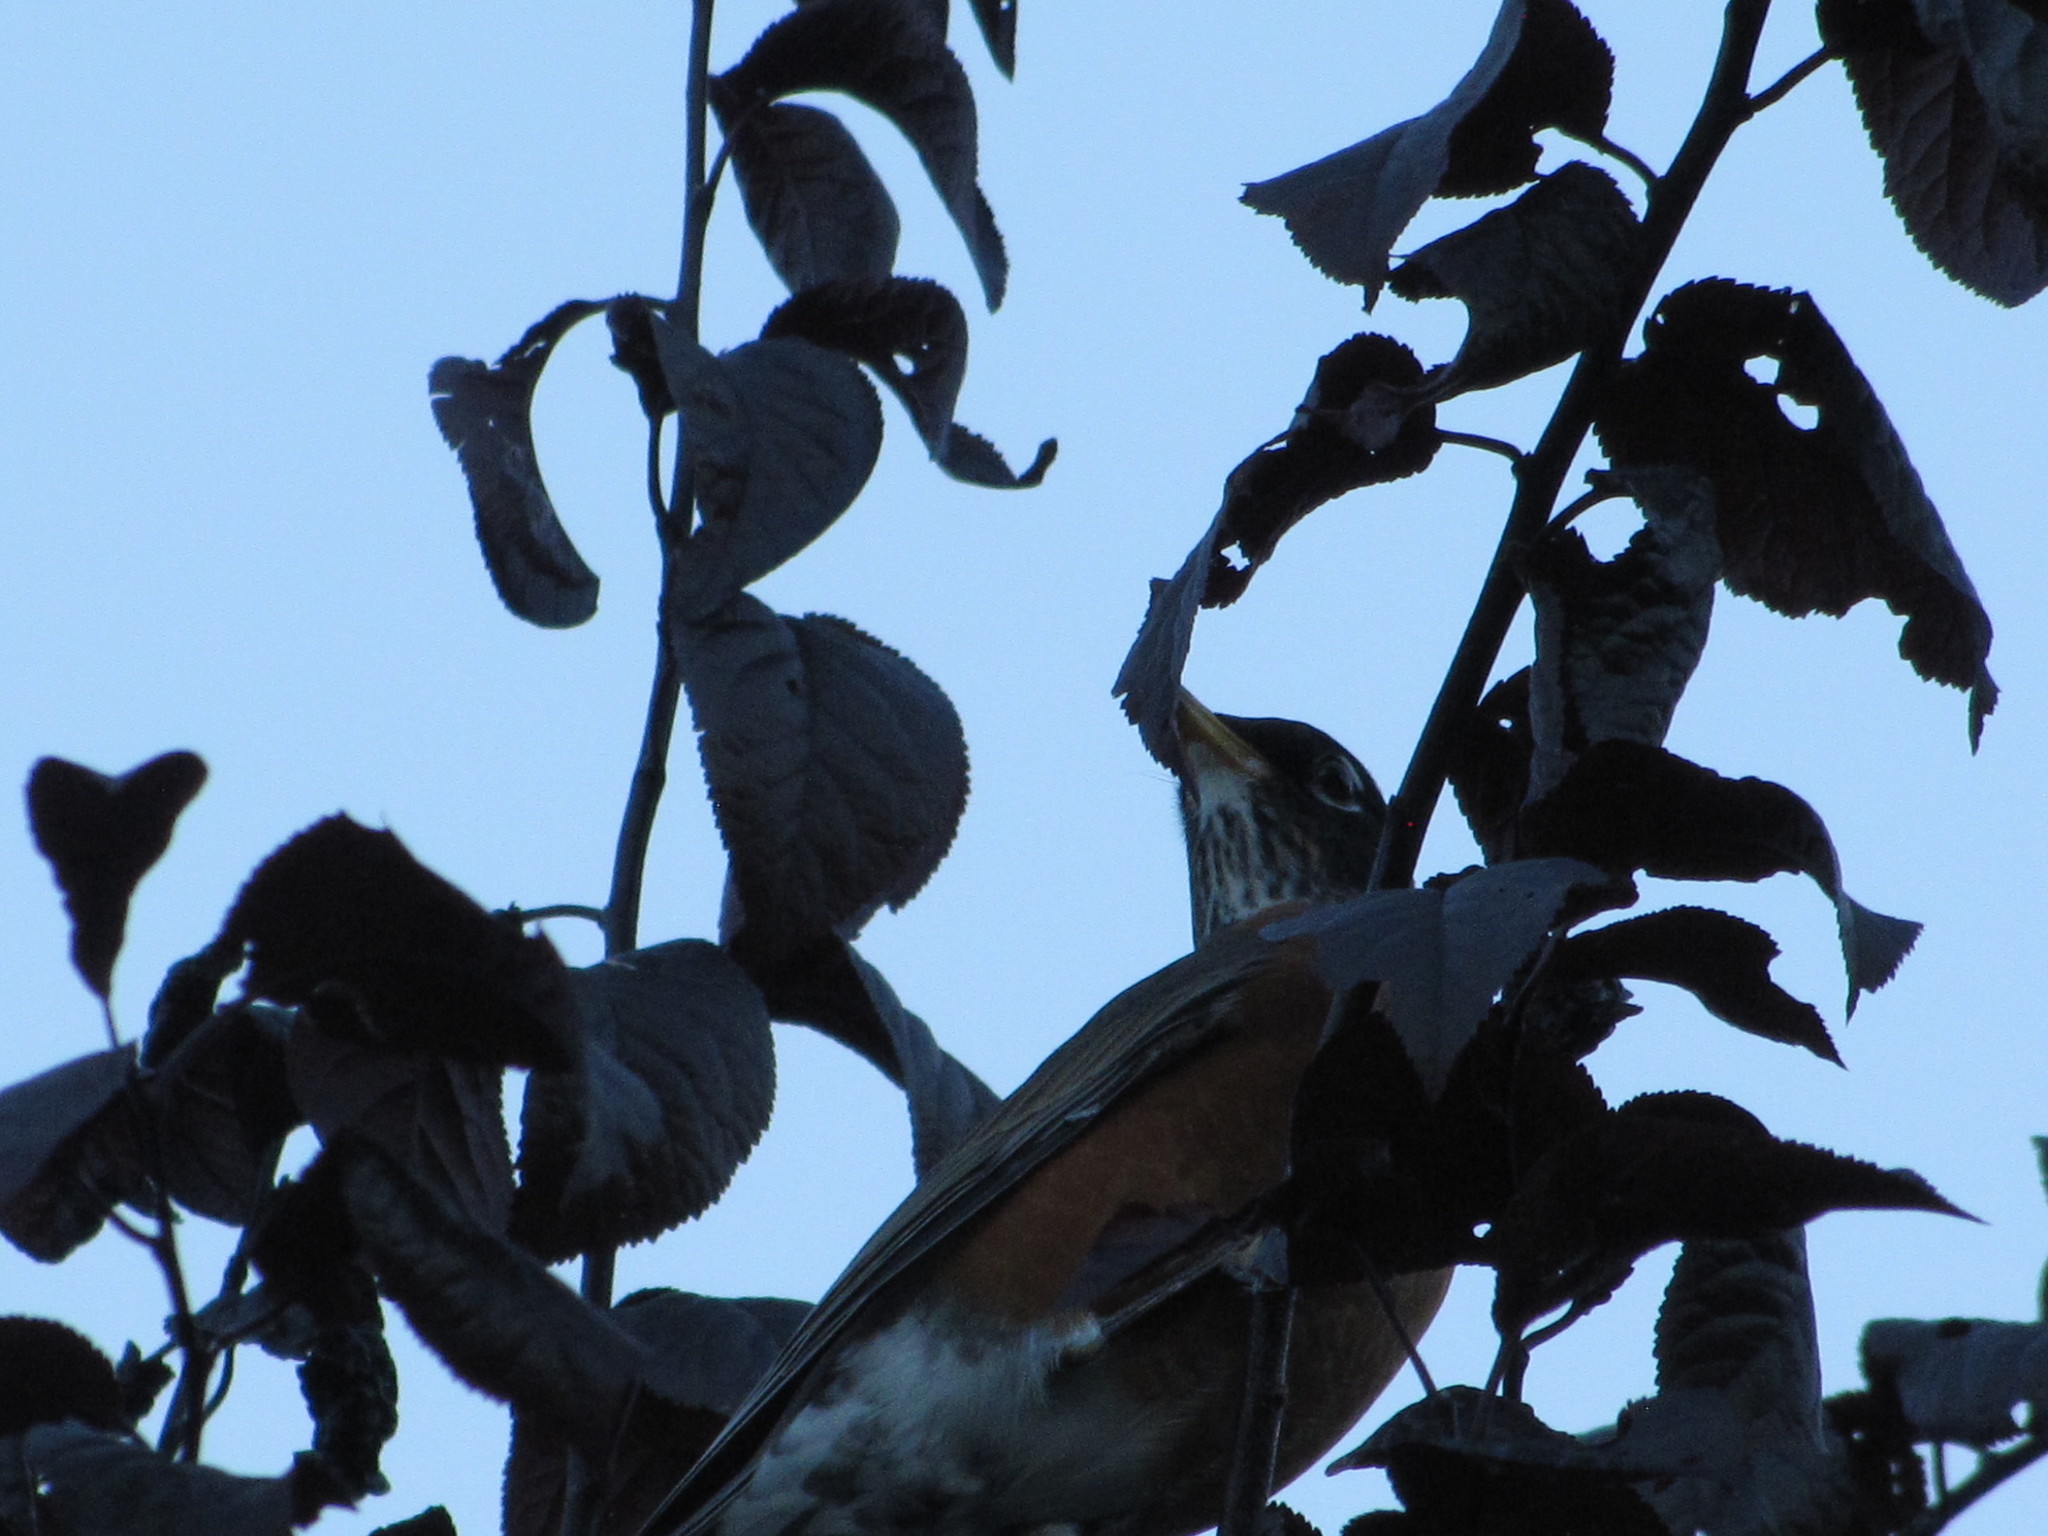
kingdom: Animalia
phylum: Chordata
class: Aves
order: Passeriformes
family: Turdidae
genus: Turdus
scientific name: Turdus migratorius
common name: American robin
